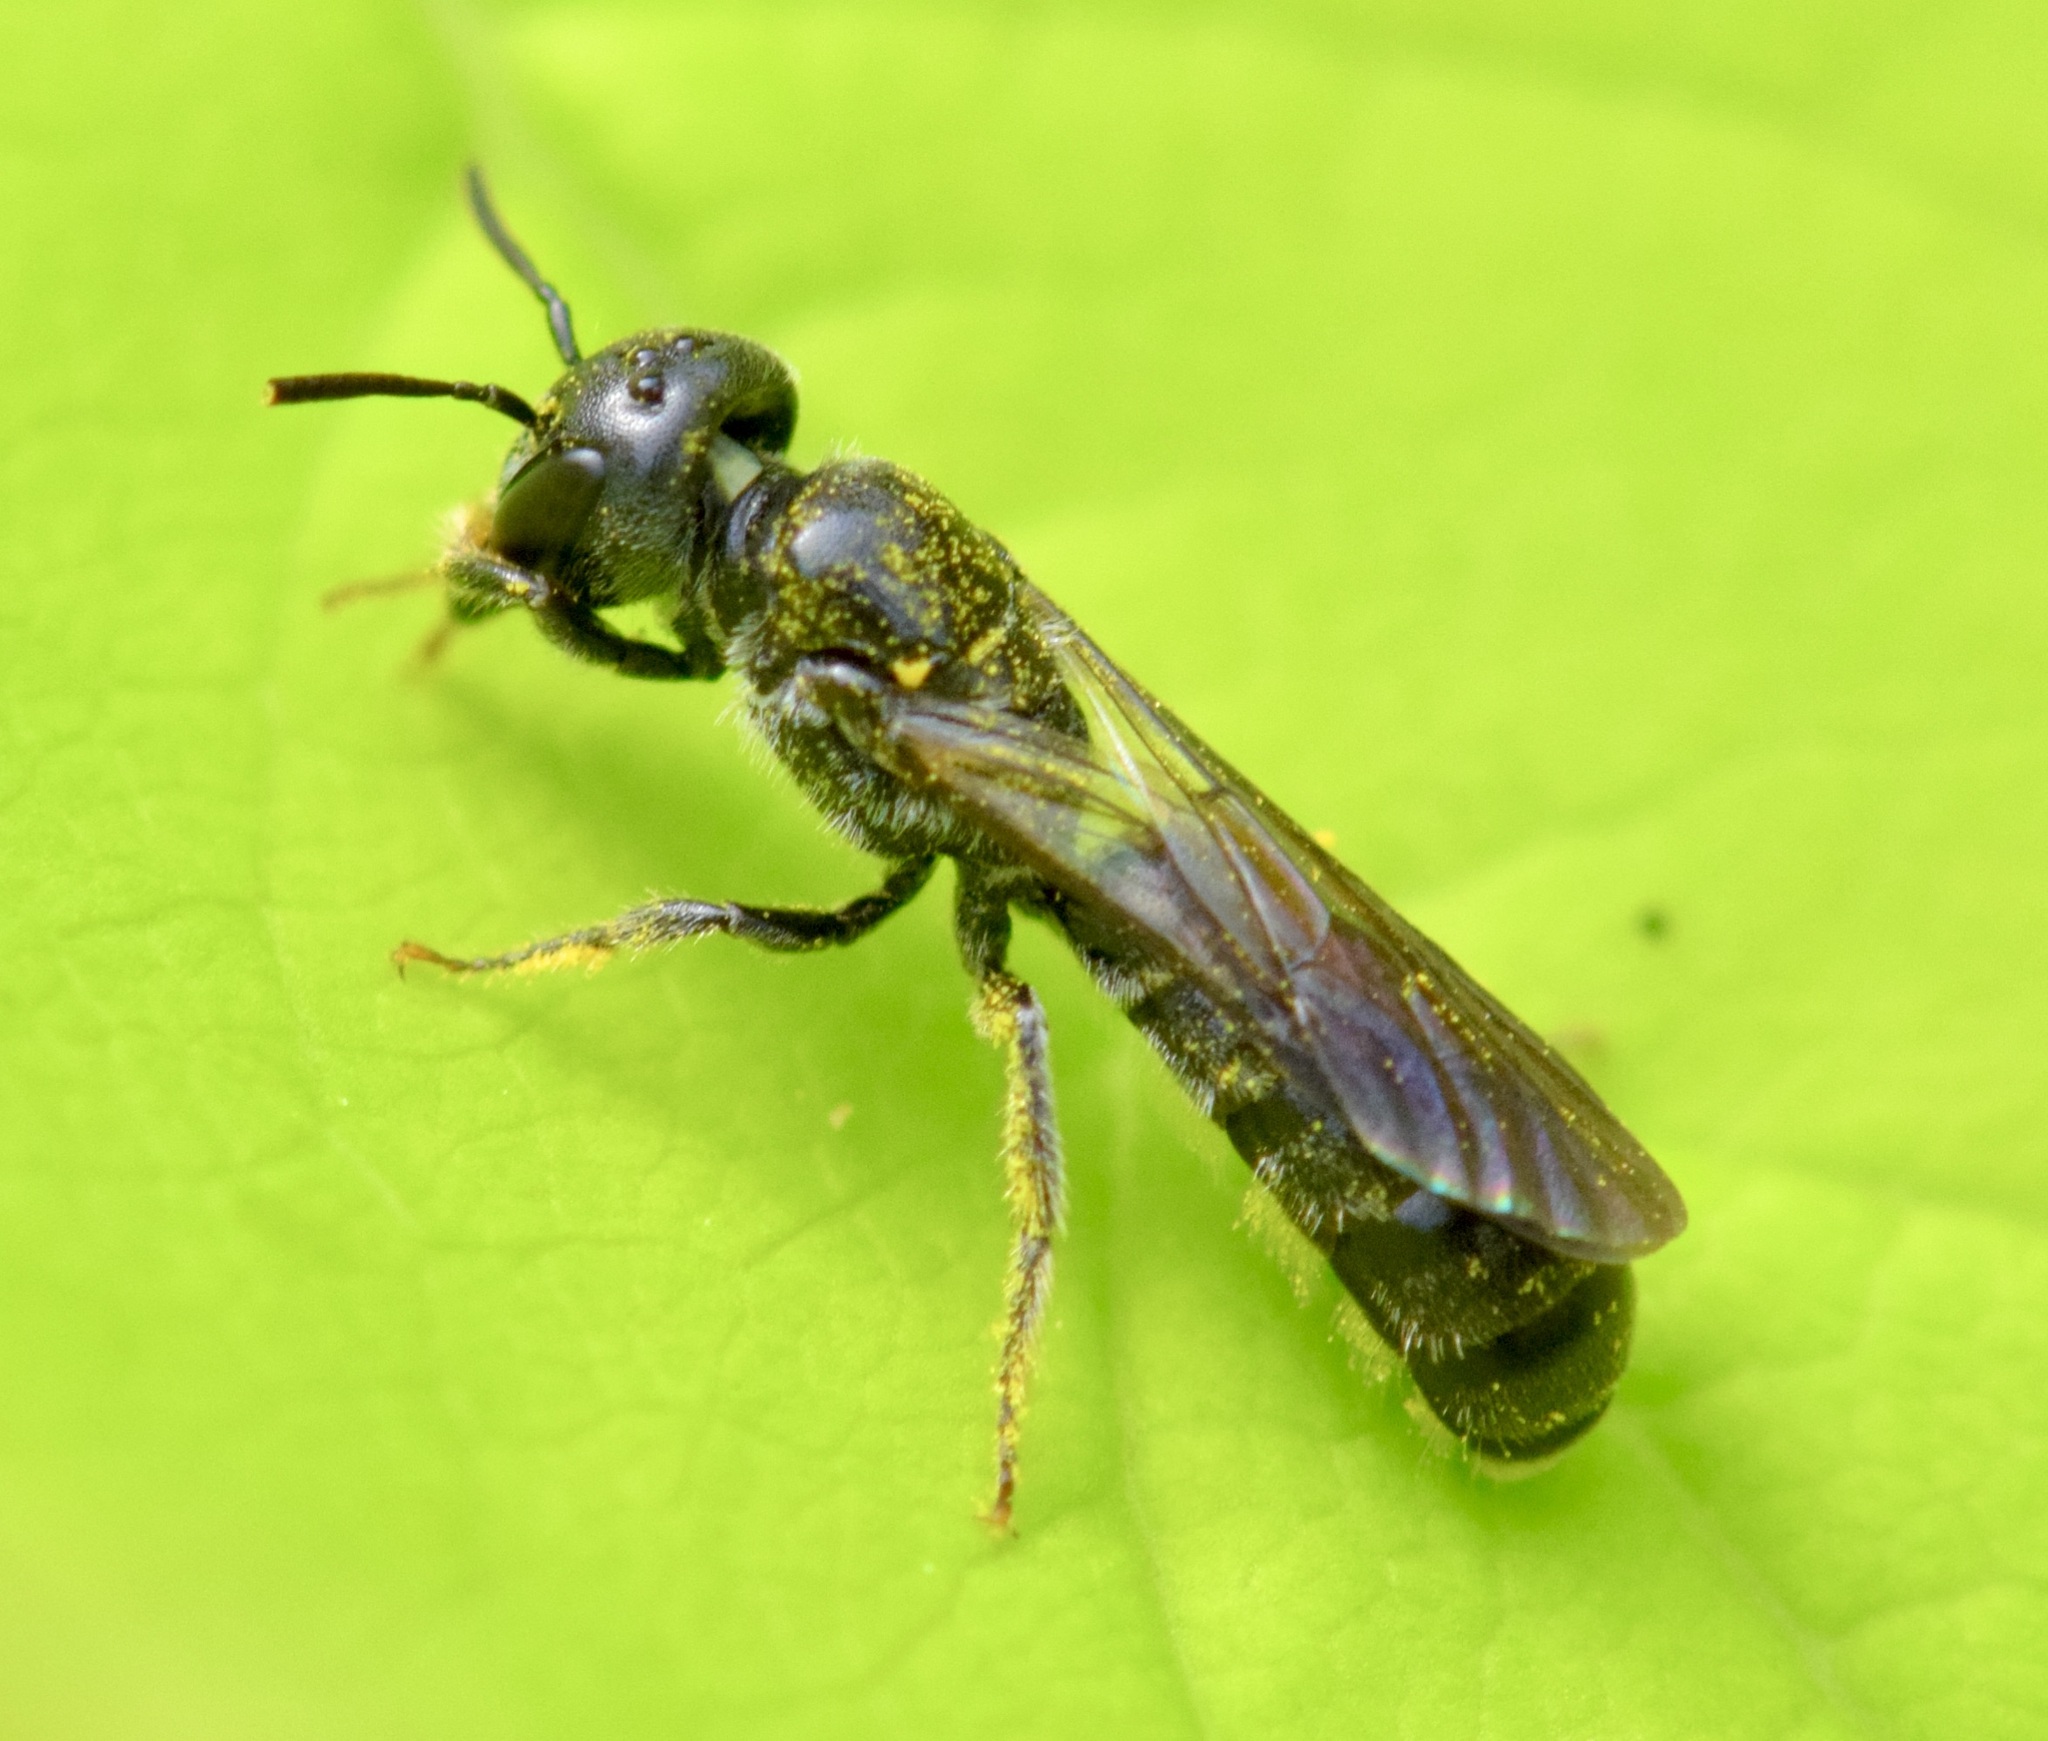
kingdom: Animalia
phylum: Arthropoda
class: Insecta
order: Hymenoptera
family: Megachilidae
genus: Chelostoma
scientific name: Chelostoma philadelphi
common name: Mock-orange scissor bee
